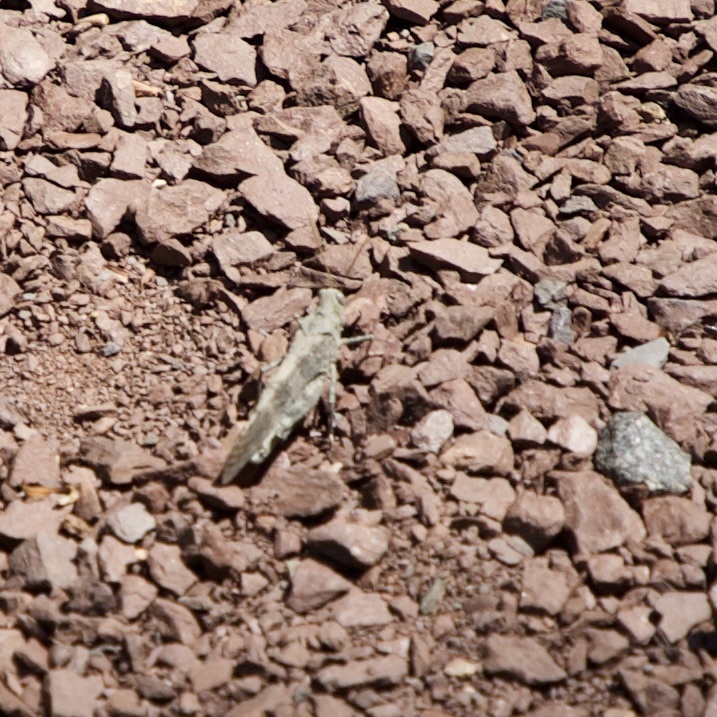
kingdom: Animalia
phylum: Arthropoda
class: Insecta
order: Orthoptera
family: Acrididae
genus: Dissosteira
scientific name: Dissosteira carolina
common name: Carolina grasshopper
